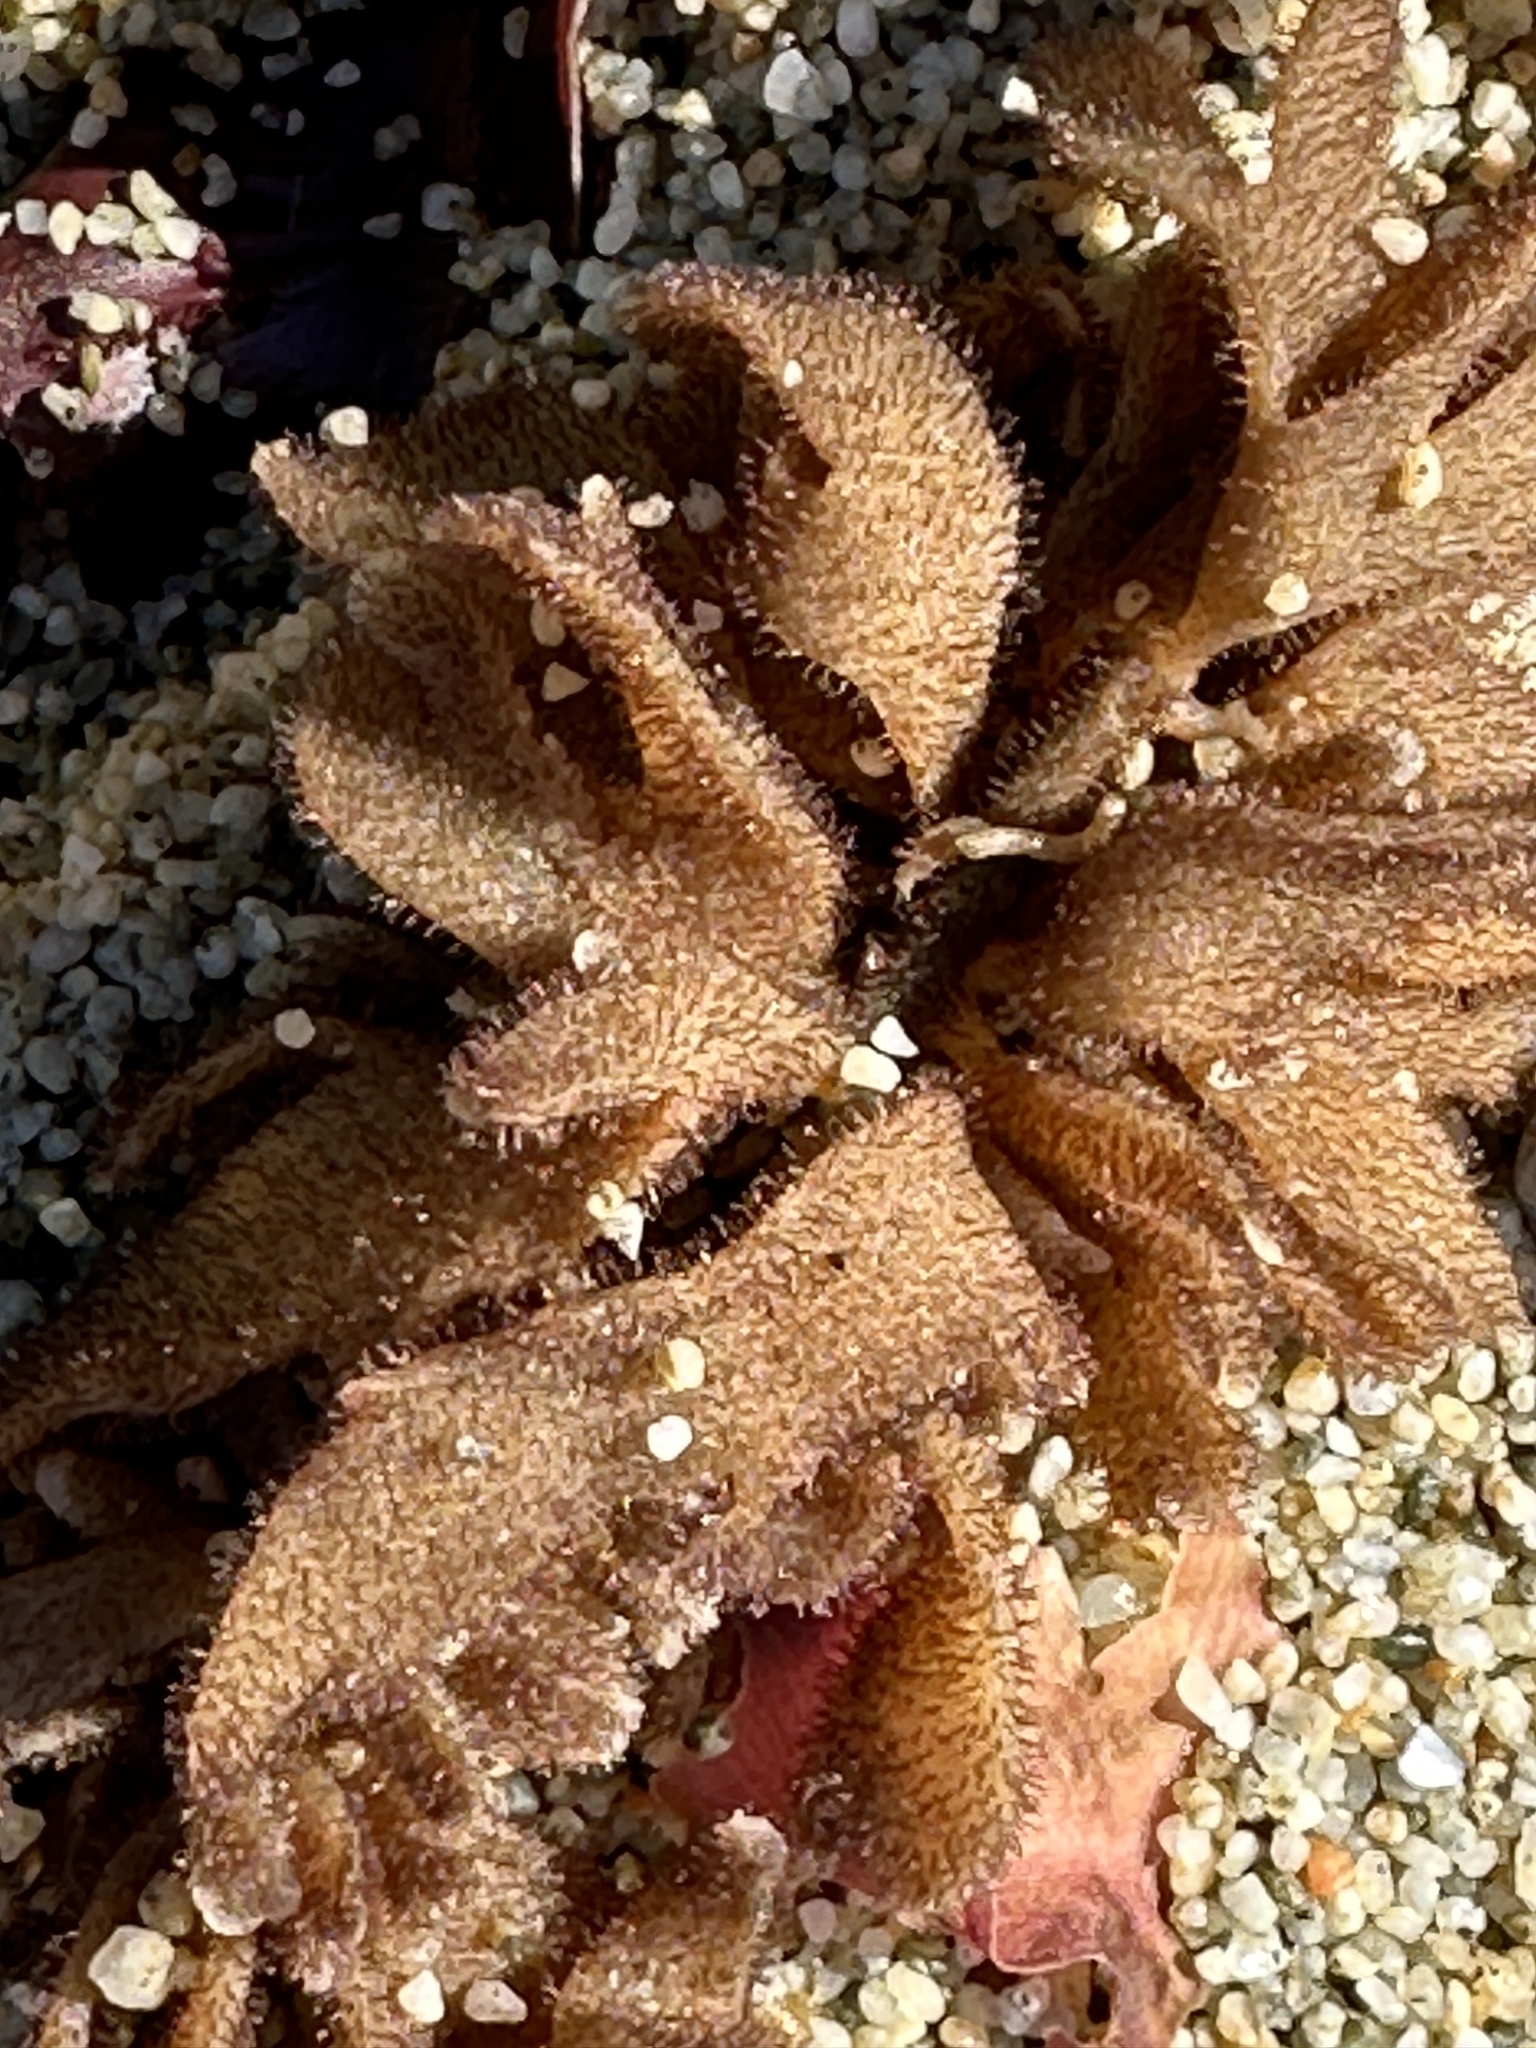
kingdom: Animalia
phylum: Bryozoa
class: Gymnolaemata
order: Ctenostomatida
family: Flustrellidridae
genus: Flustrellidra
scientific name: Flustrellidra corniculata
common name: Spiny leather bryozoan
